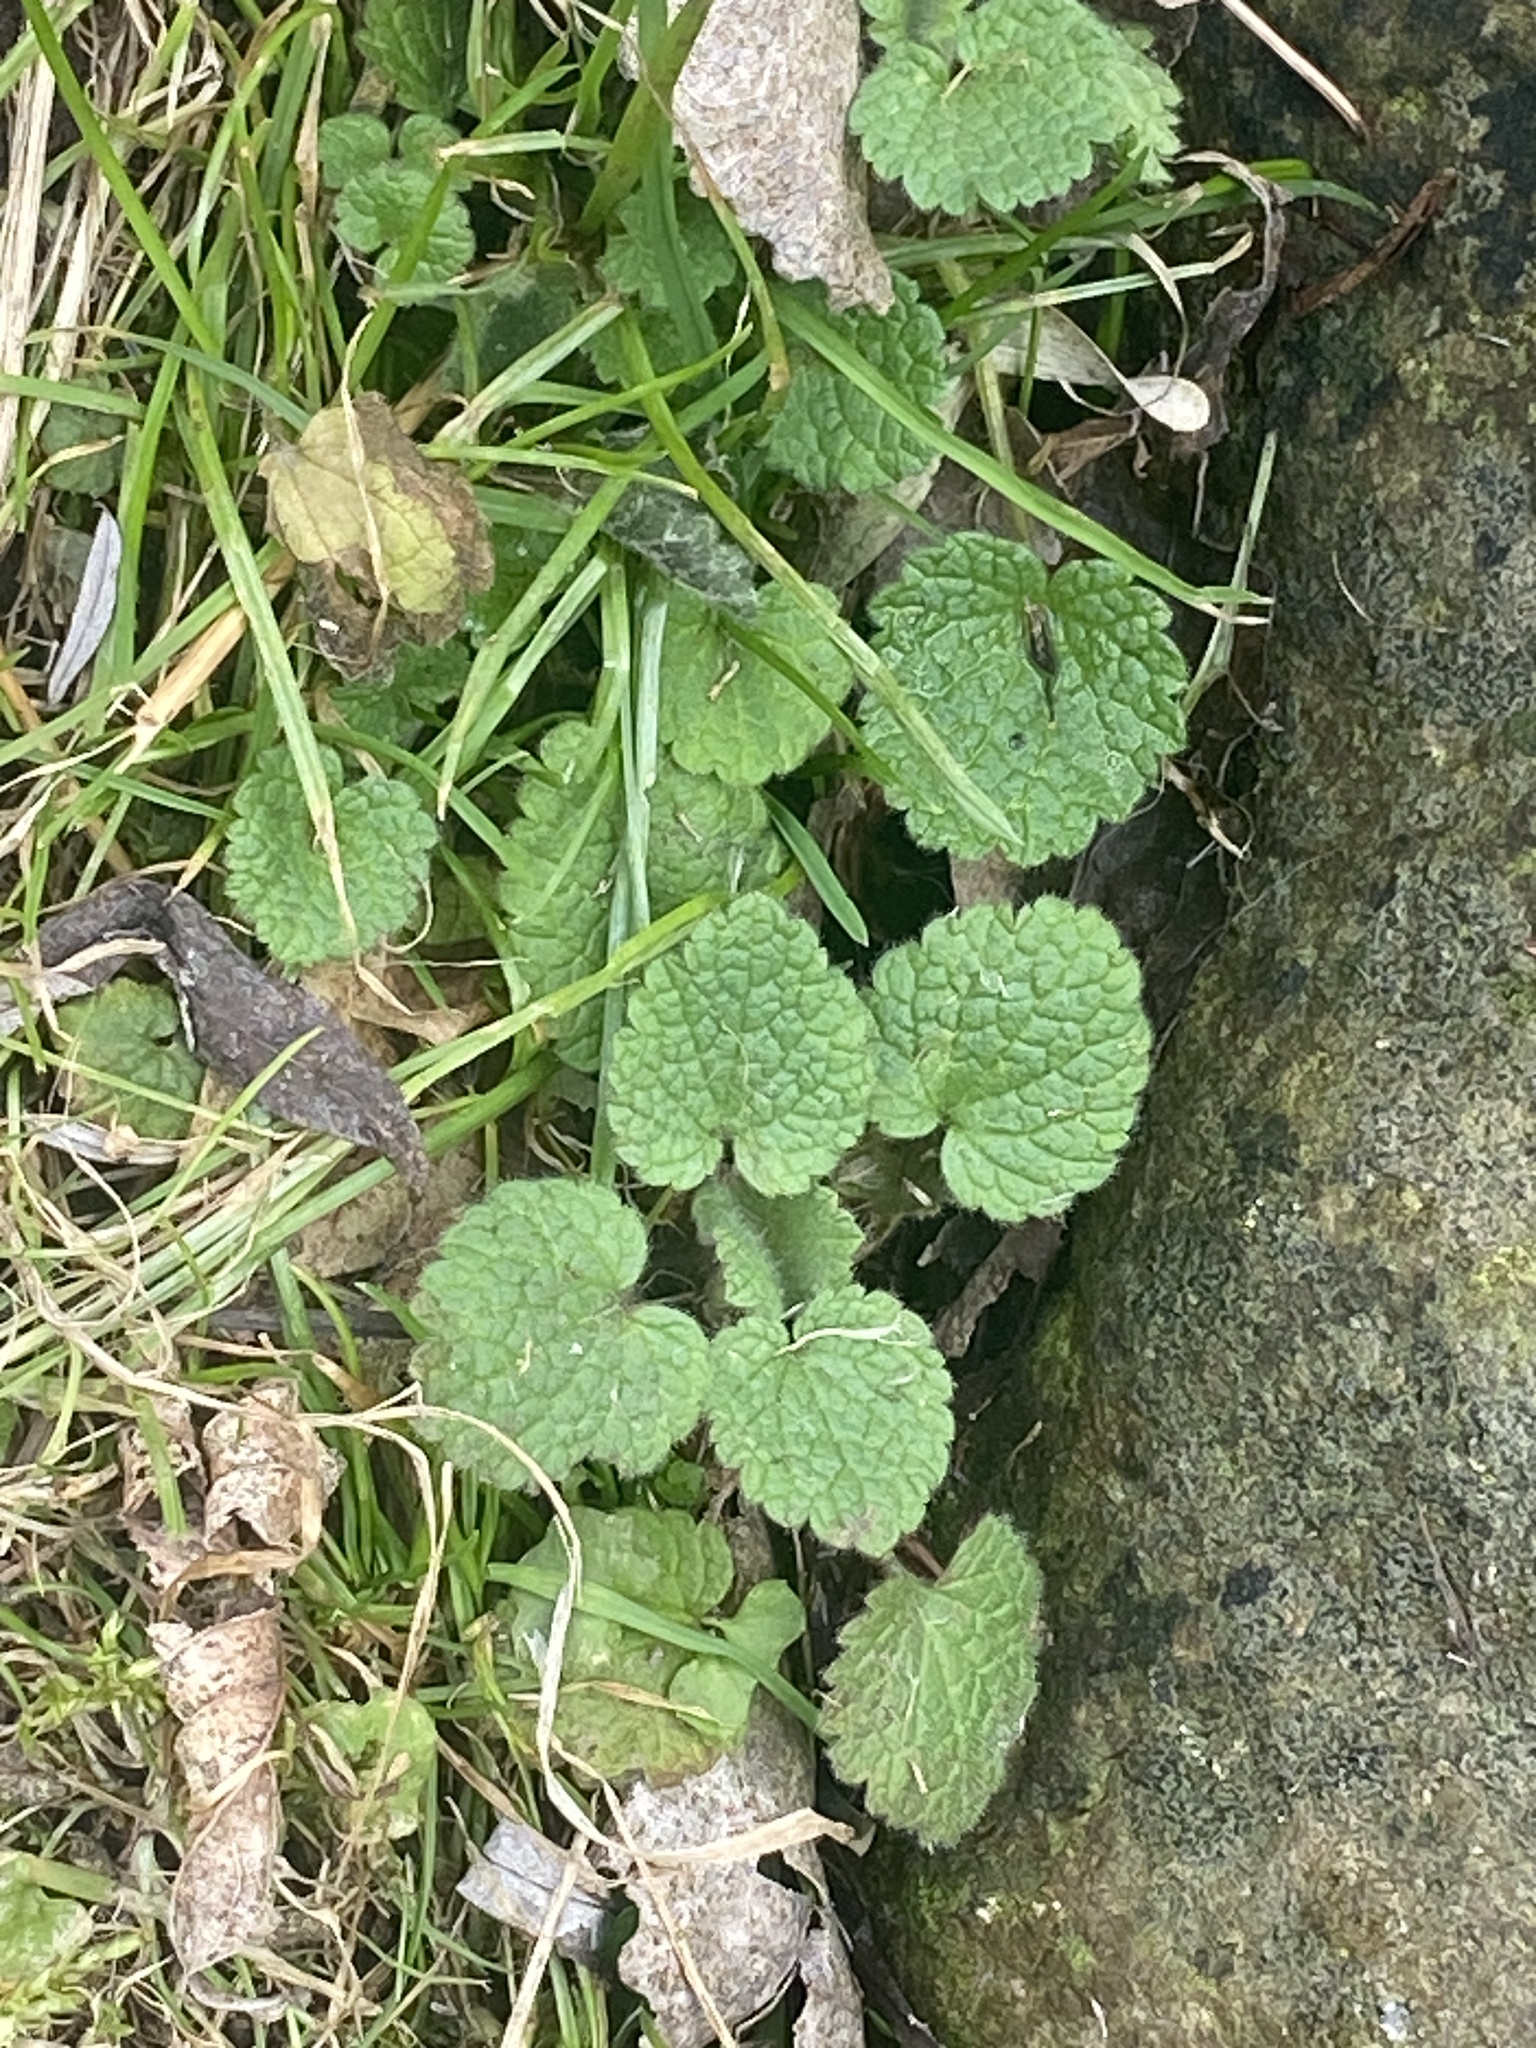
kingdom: Plantae
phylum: Tracheophyta
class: Magnoliopsida
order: Lamiales
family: Lamiaceae
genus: Lamium
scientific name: Lamium purpureum
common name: Red dead-nettle
